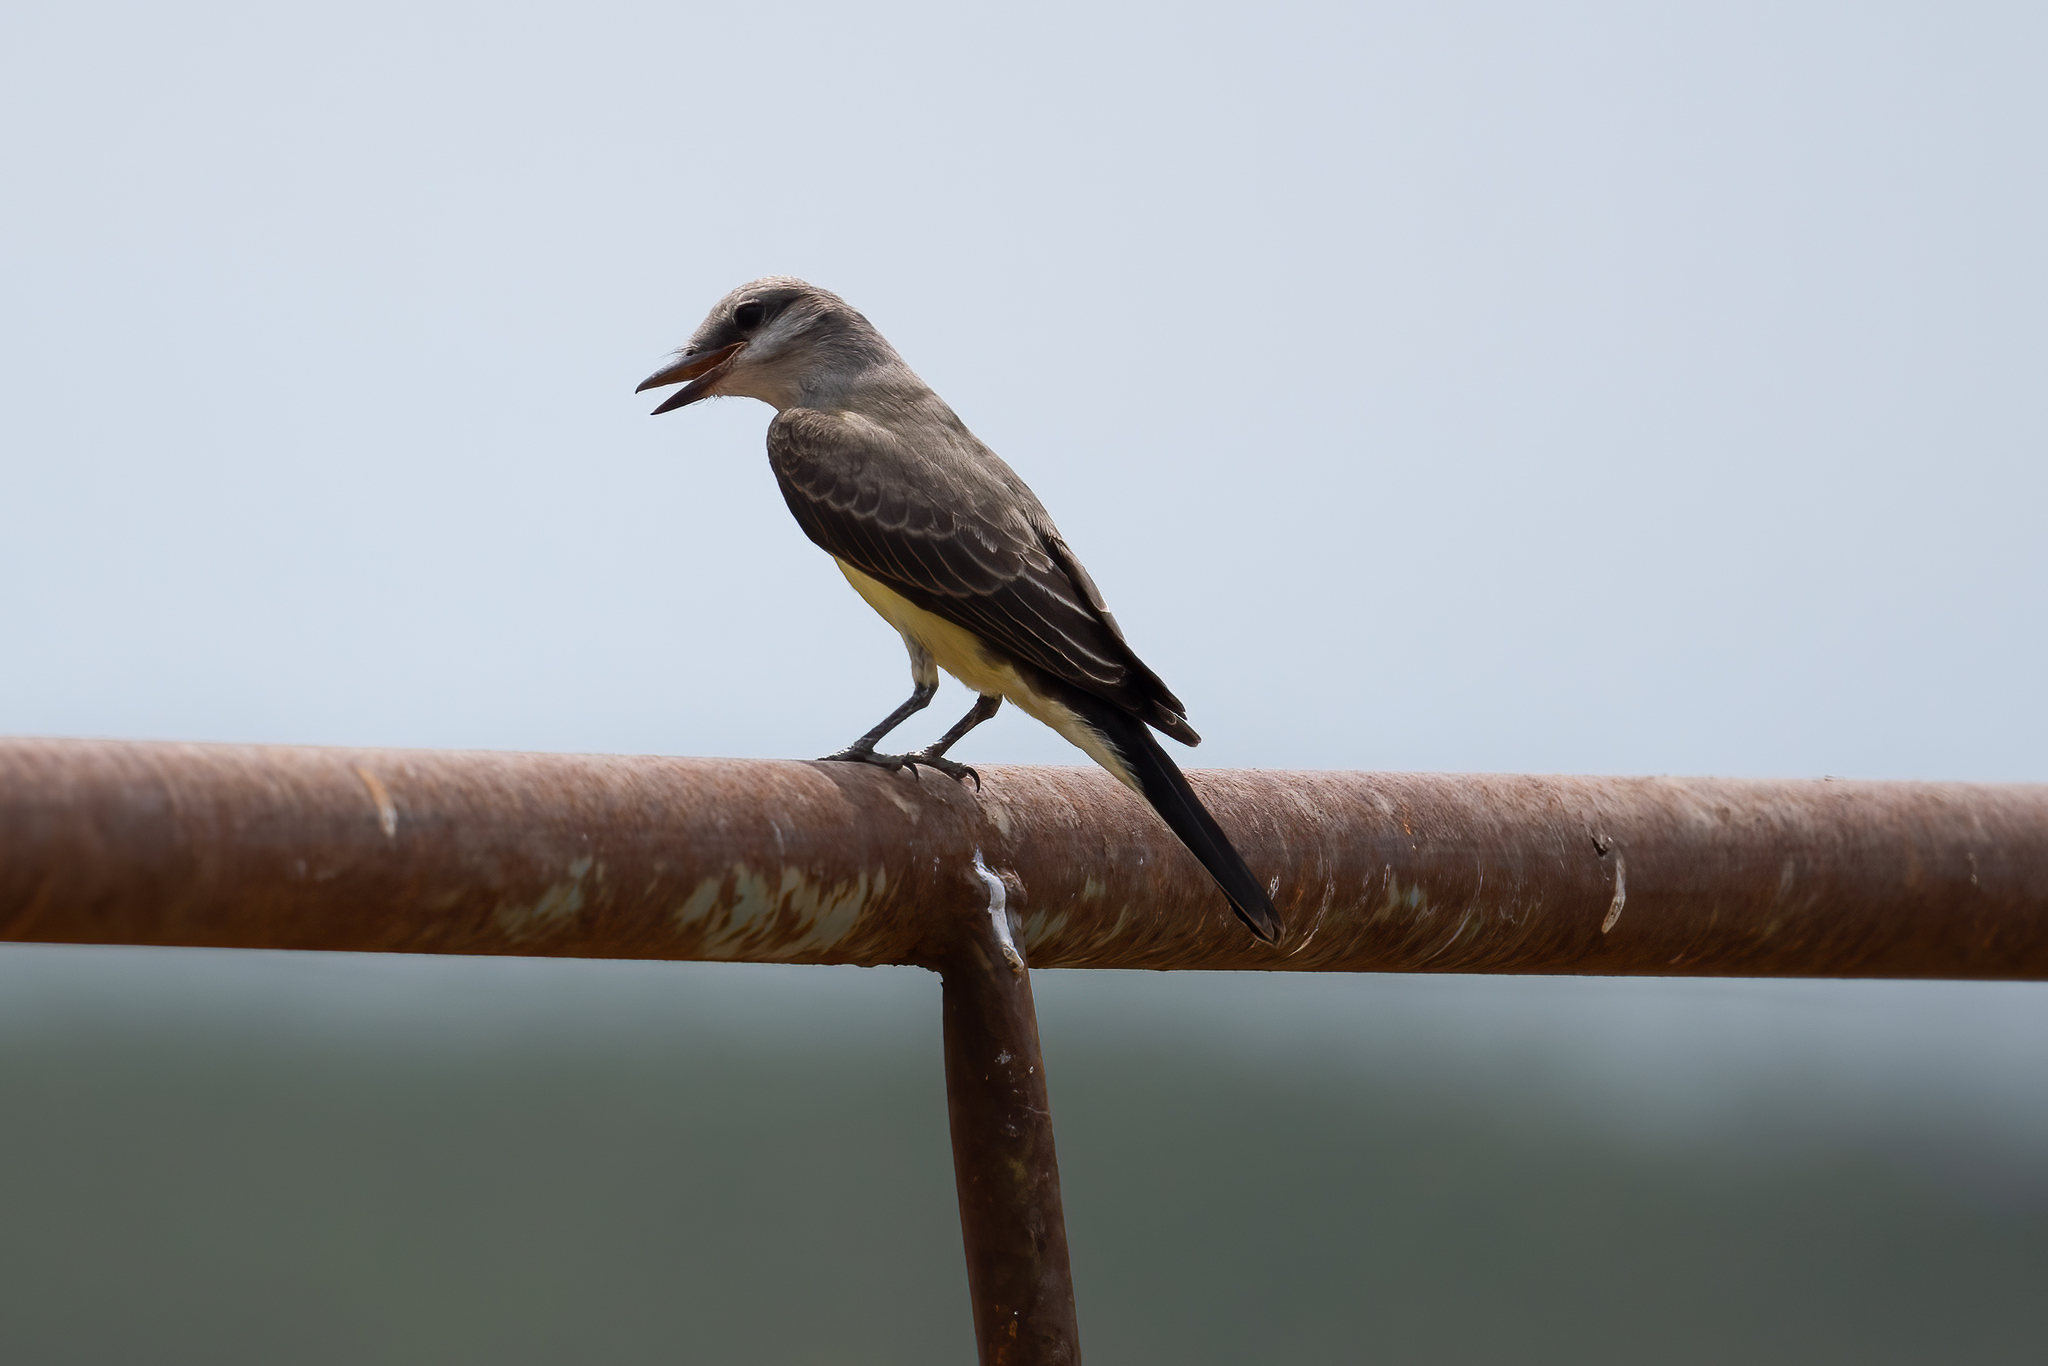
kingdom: Animalia
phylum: Chordata
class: Aves
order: Passeriformes
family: Tyrannidae
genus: Tyrannus
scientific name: Tyrannus verticalis
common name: Western kingbird
